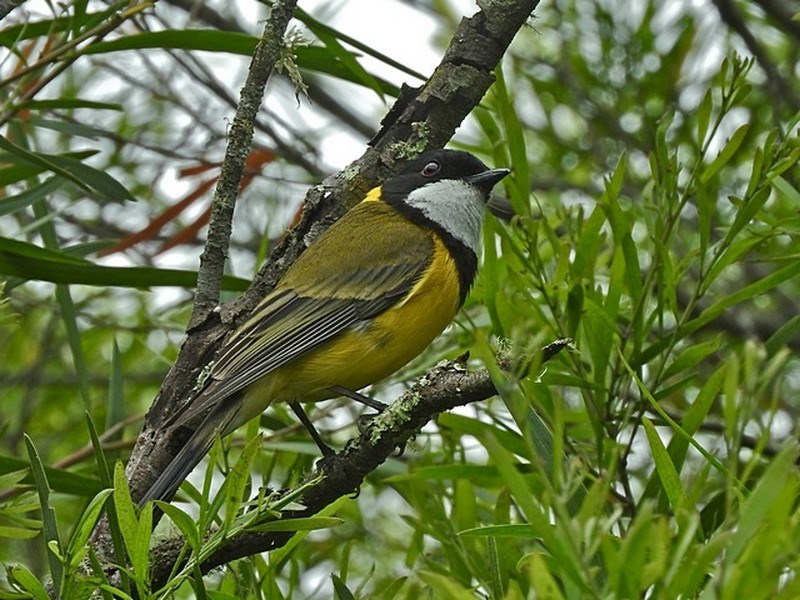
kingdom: Animalia
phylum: Chordata
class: Aves
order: Passeriformes
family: Pachycephalidae
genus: Pachycephala
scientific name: Pachycephala pectoralis
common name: Australian golden whistler
